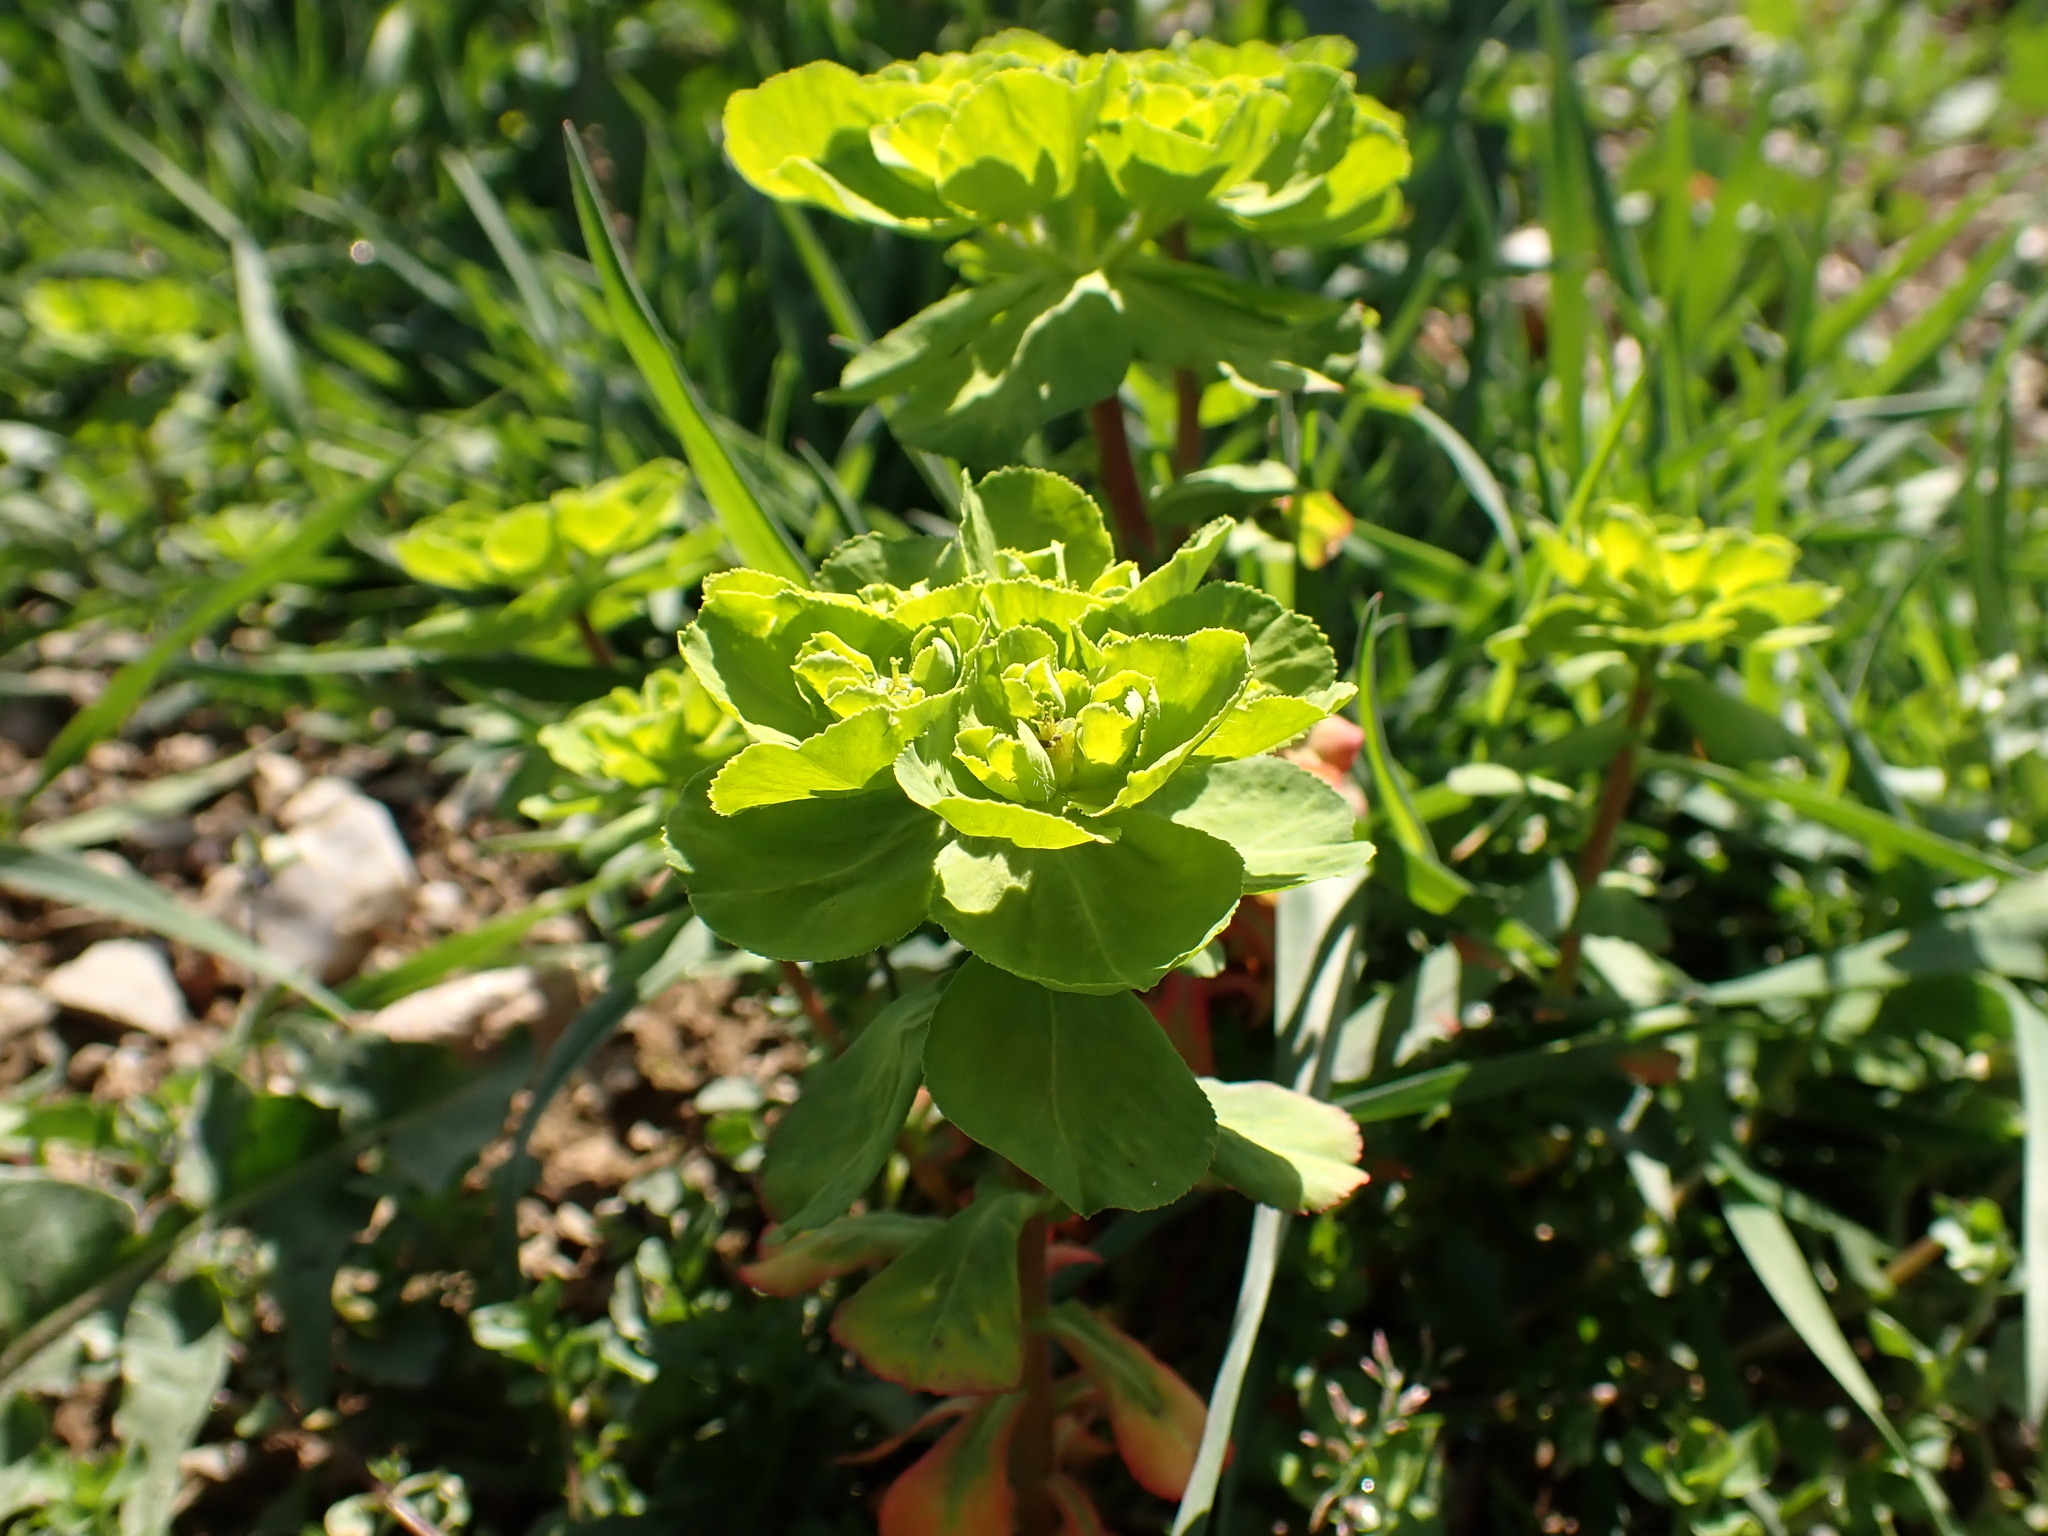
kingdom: Plantae
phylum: Tracheophyta
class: Magnoliopsida
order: Malpighiales
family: Euphorbiaceae
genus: Euphorbia
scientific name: Euphorbia helioscopia
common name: Sun spurge
